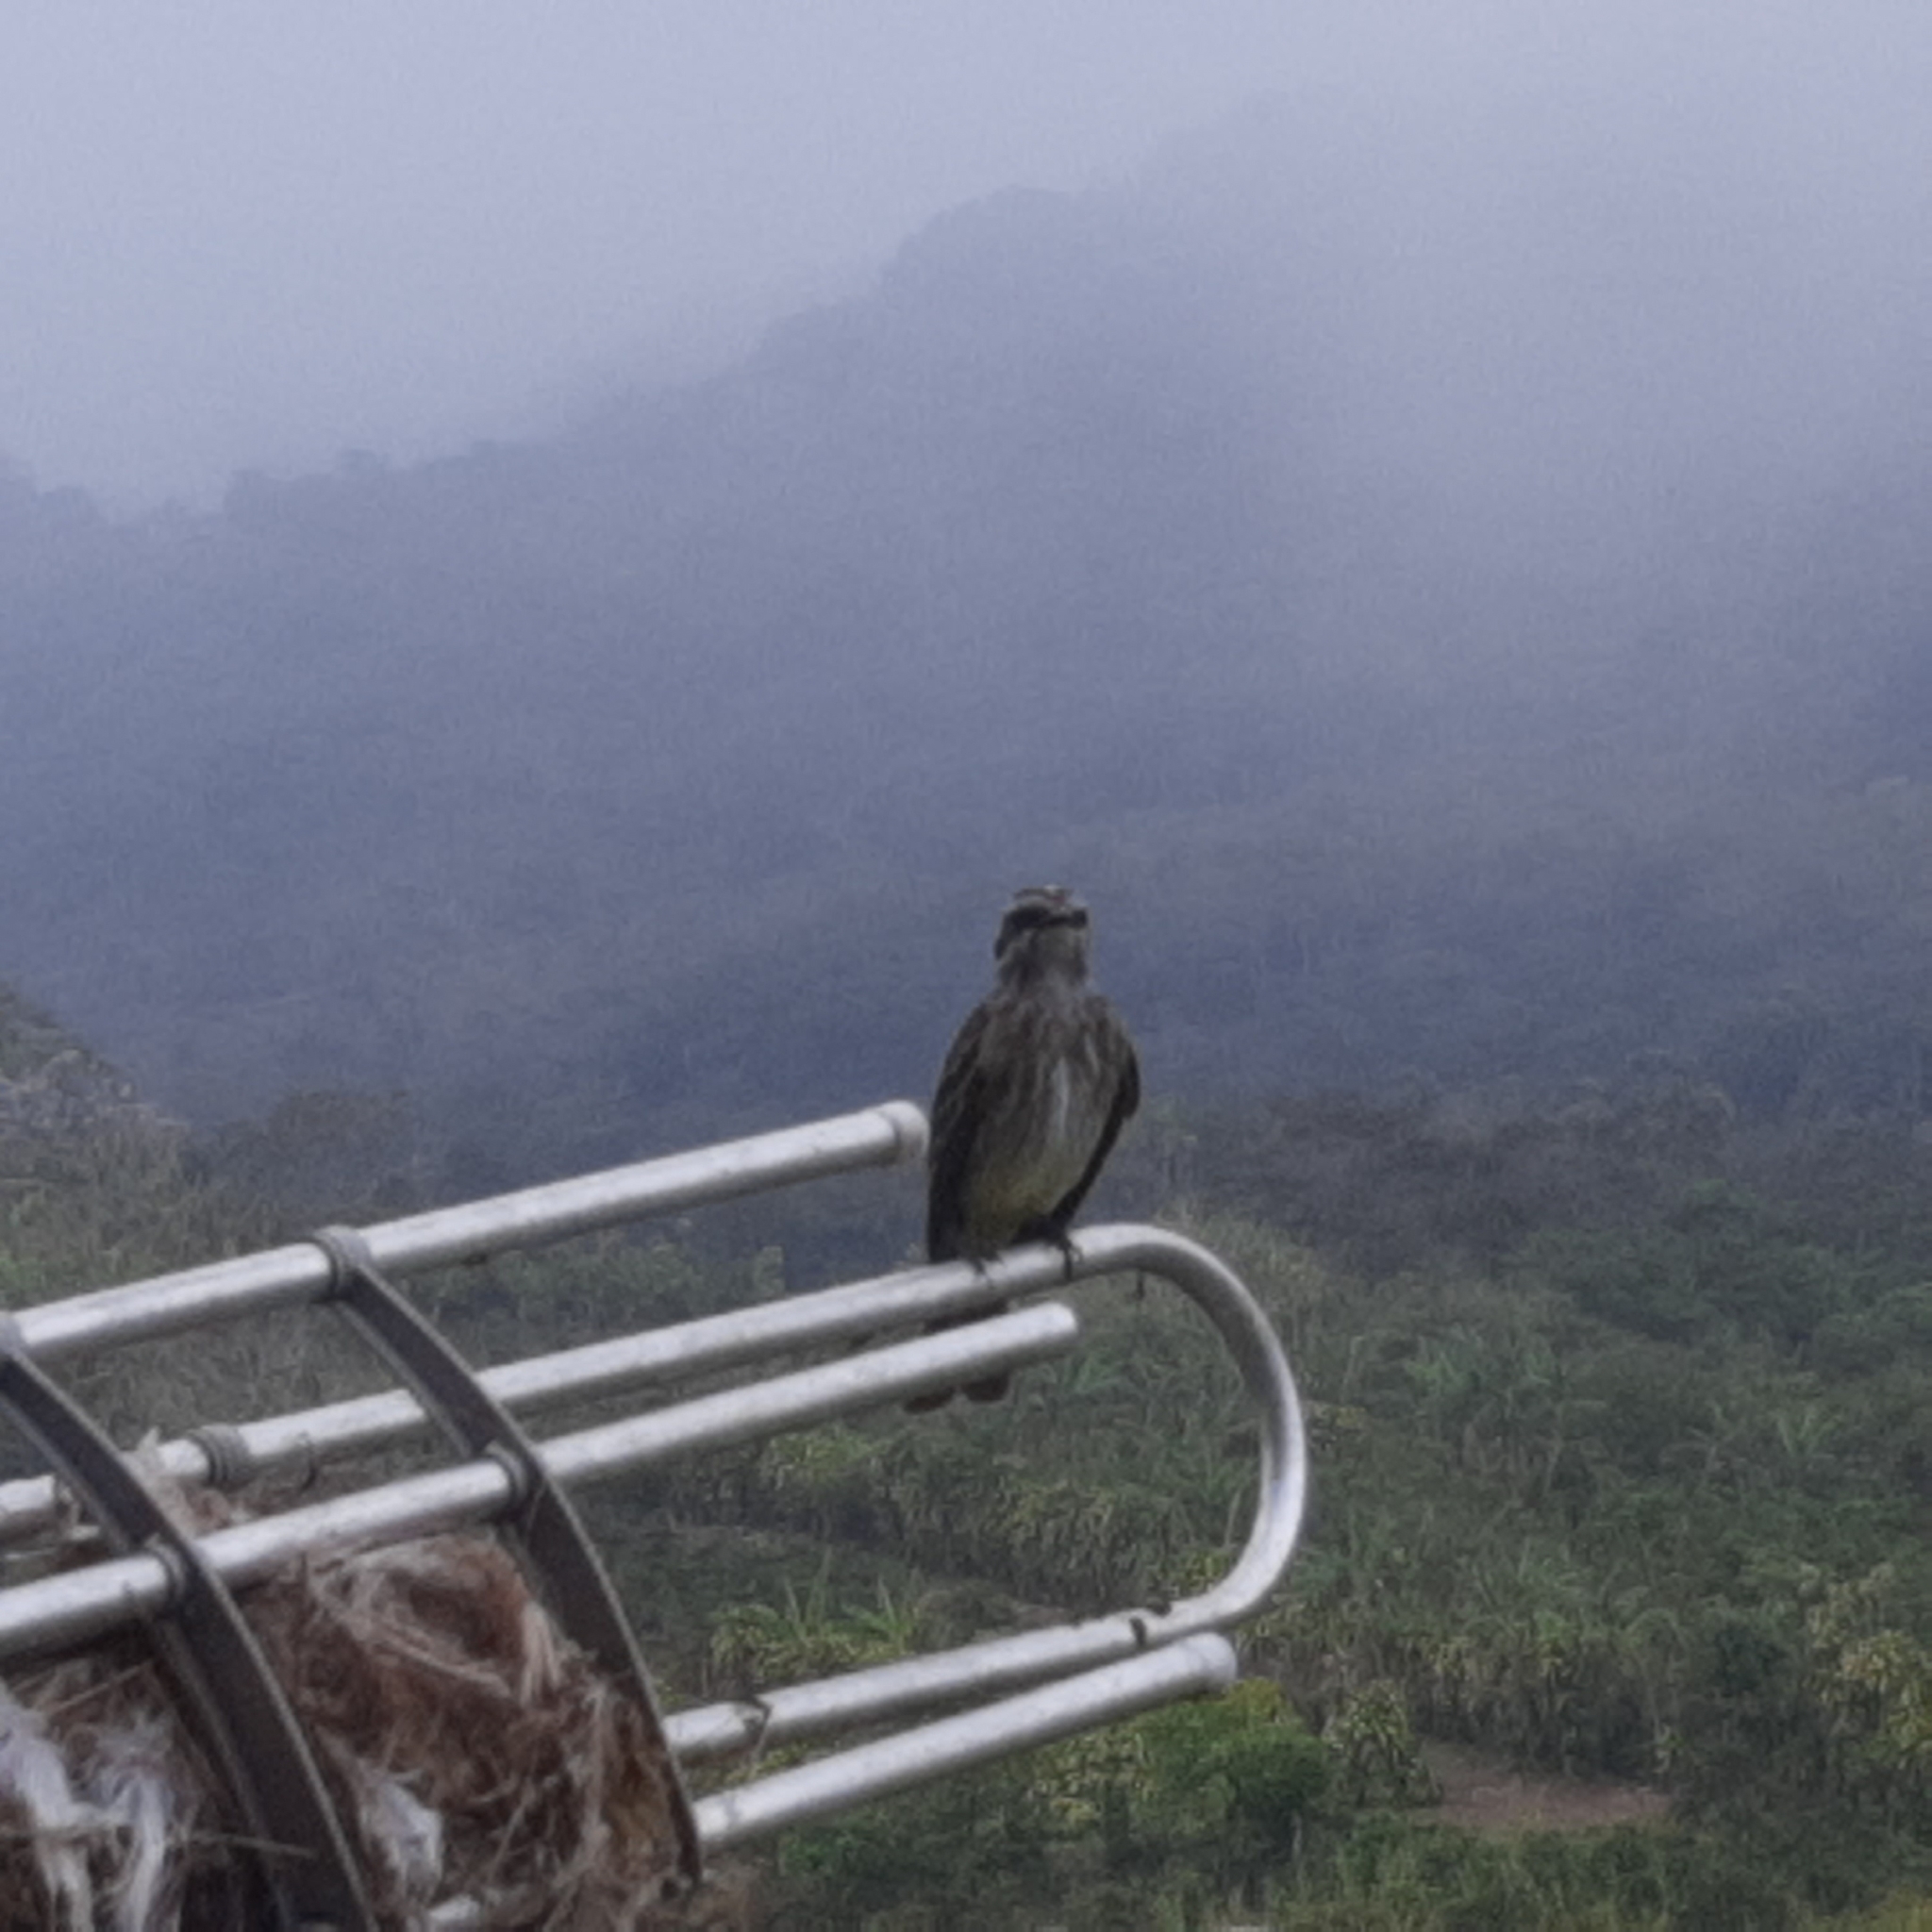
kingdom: Animalia
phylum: Chordata
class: Aves
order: Passeriformes
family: Tyrannidae
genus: Legatus
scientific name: Legatus leucophaius
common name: Piratic flycatcher
